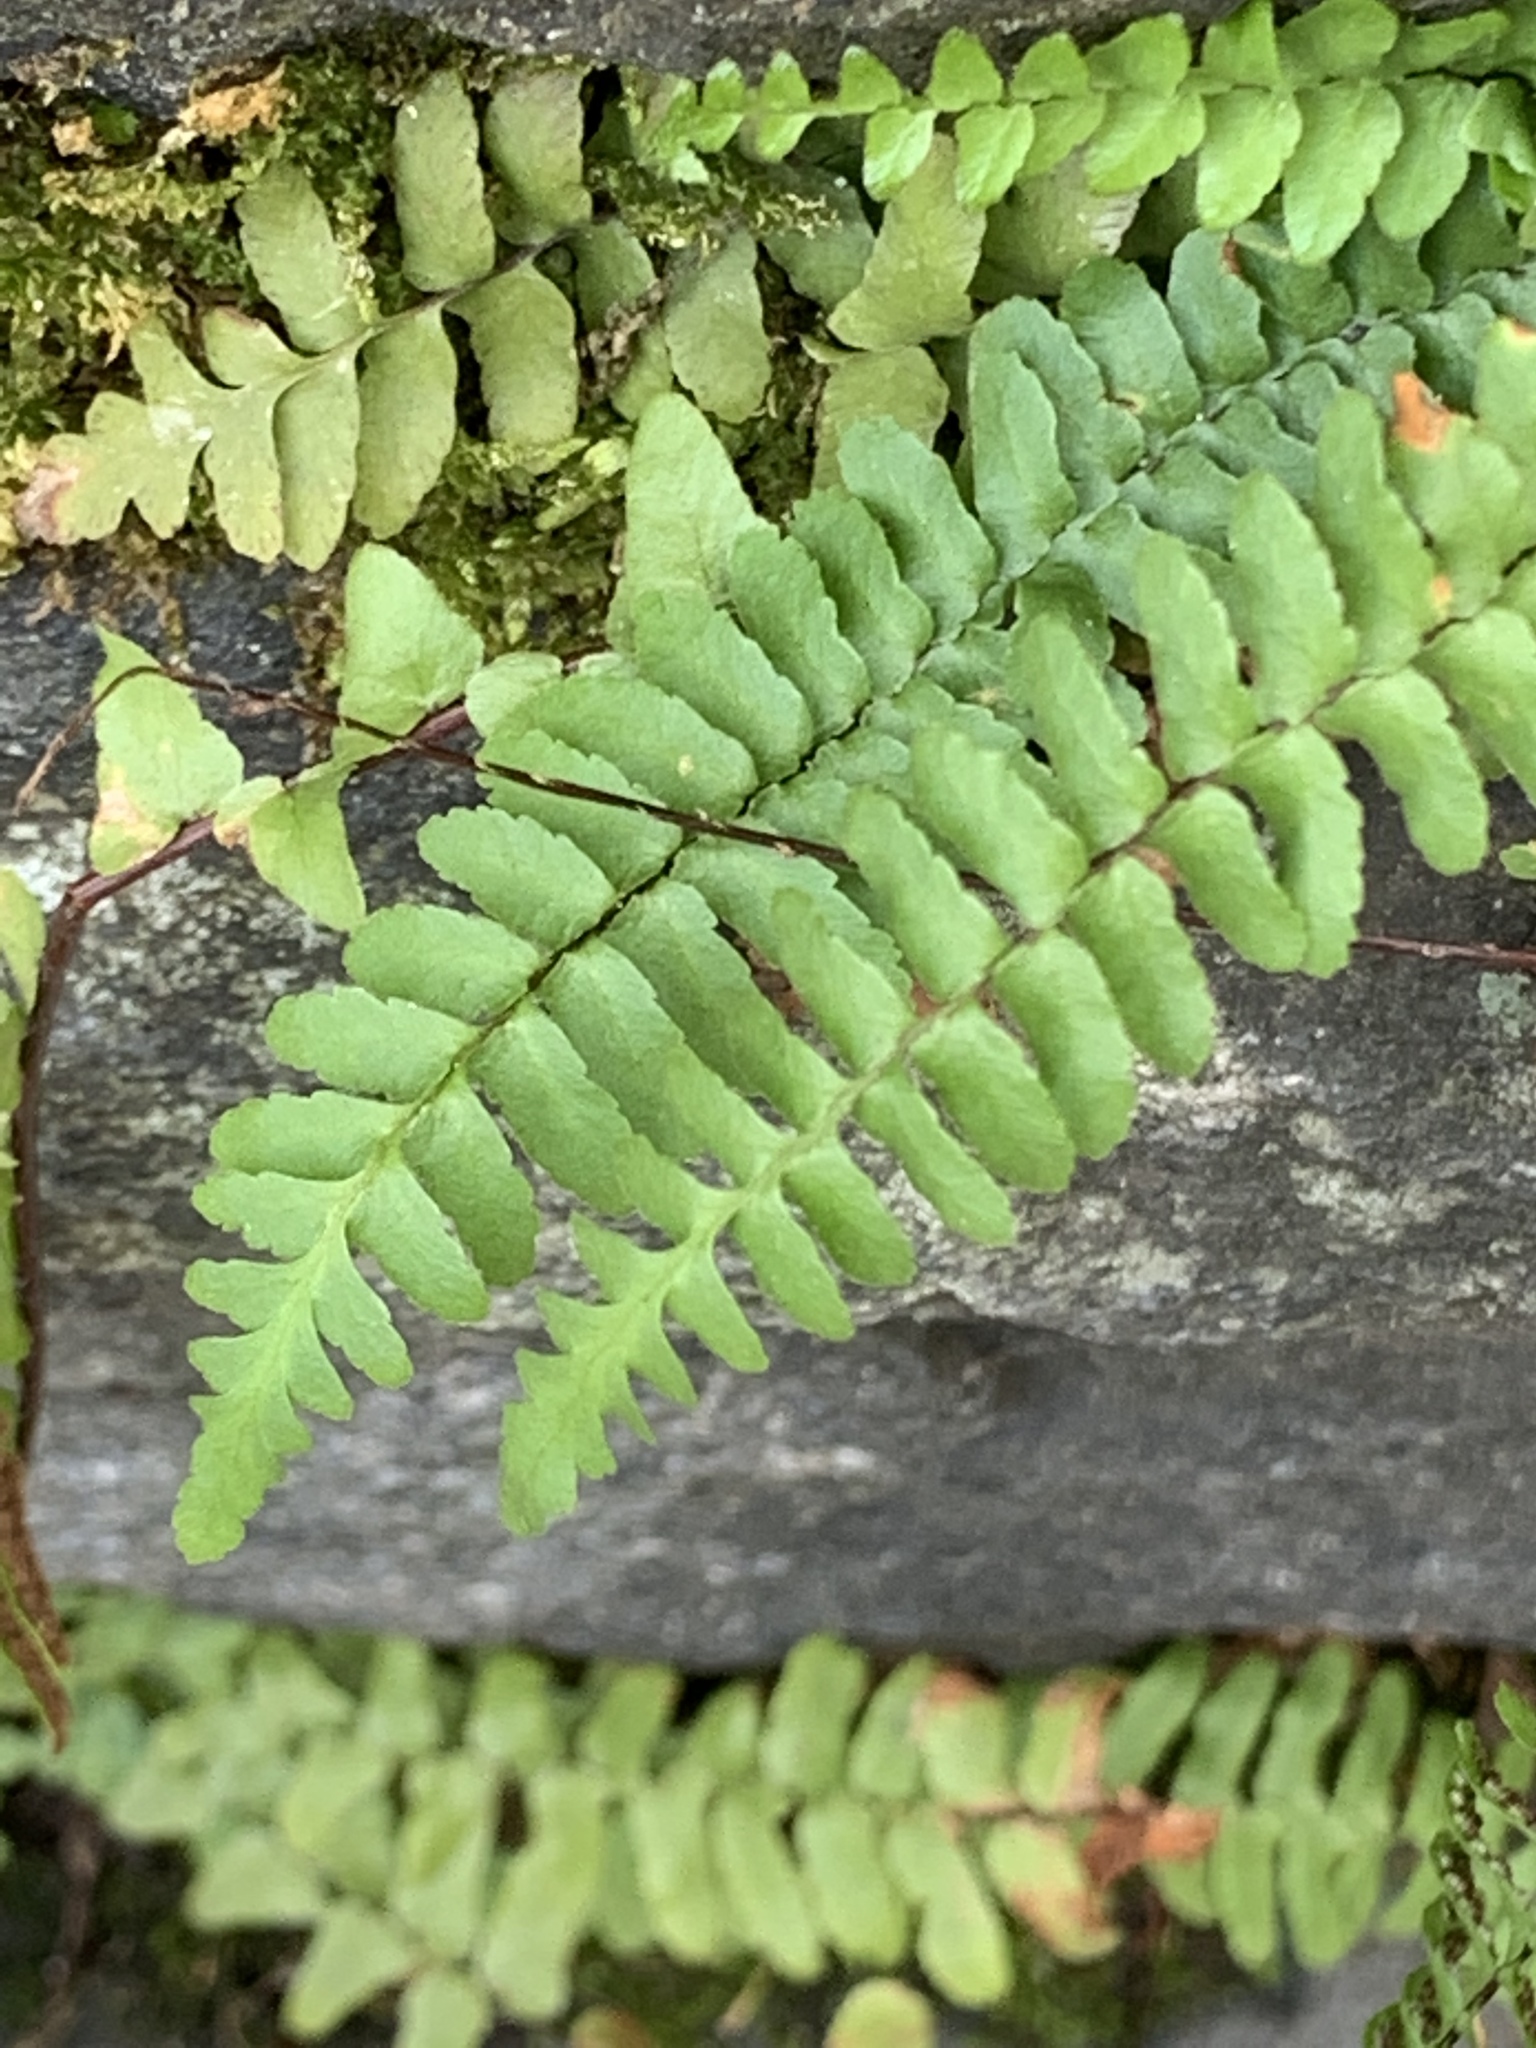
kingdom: Plantae
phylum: Tracheophyta
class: Polypodiopsida
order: Polypodiales
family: Aspleniaceae
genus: Asplenium
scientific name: Asplenium platyneuron
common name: Ebony spleenwort
